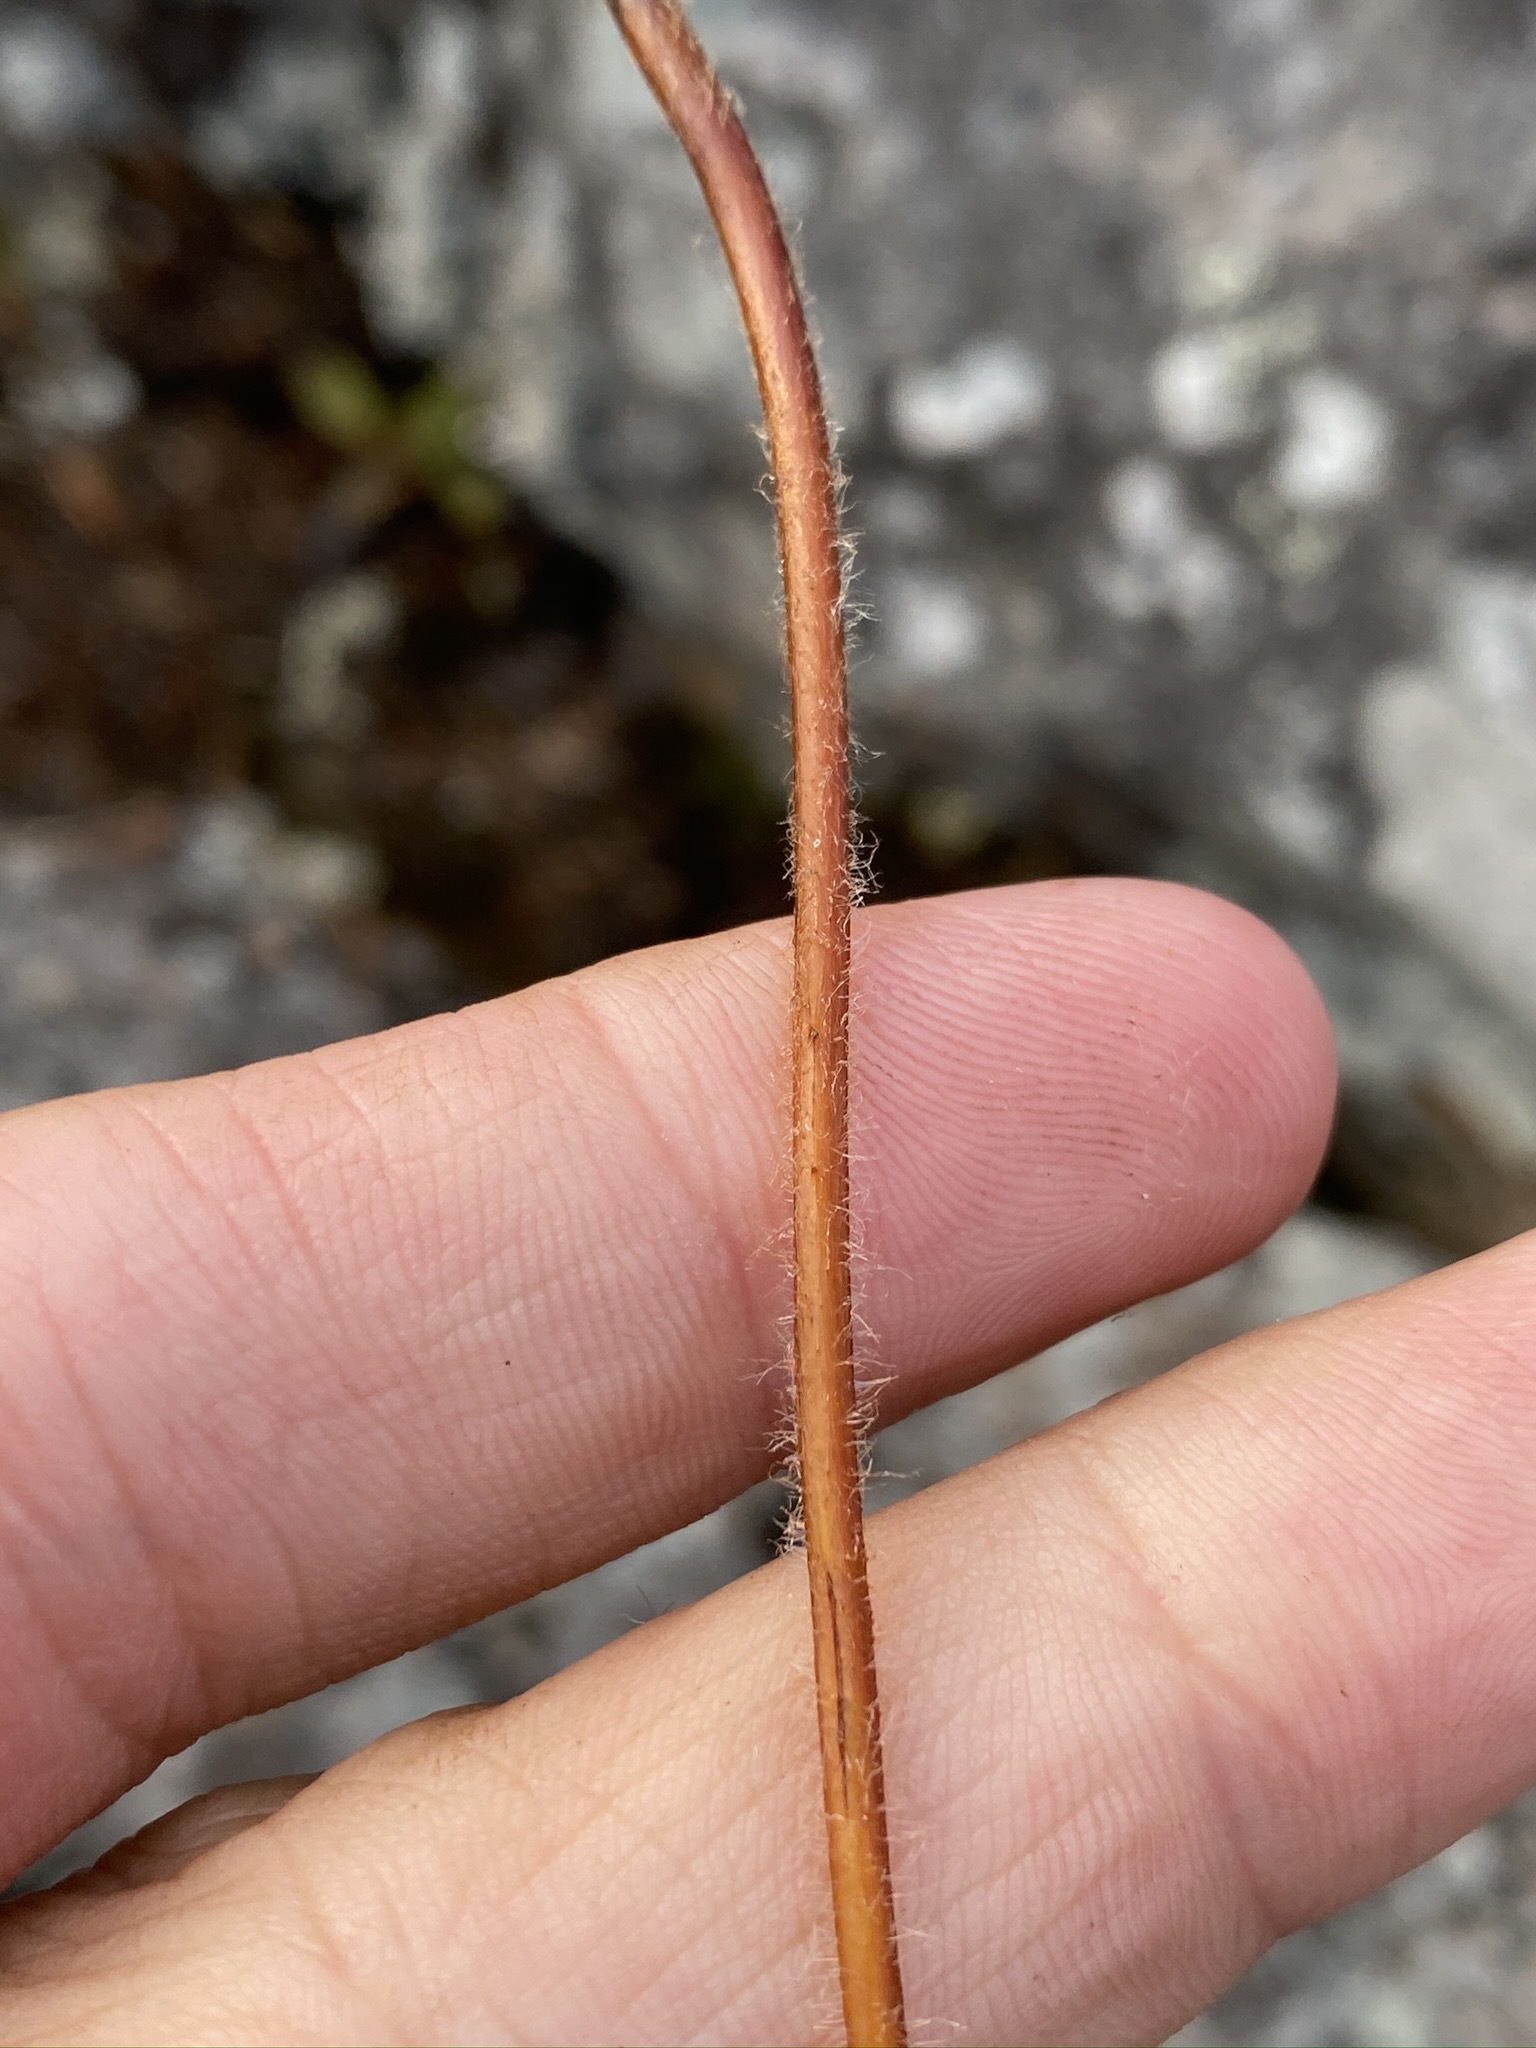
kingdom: Plantae
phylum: Tracheophyta
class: Polypodiopsida
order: Polypodiales
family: Dennstaedtiaceae
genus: Sitobolium
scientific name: Sitobolium punctilobum
